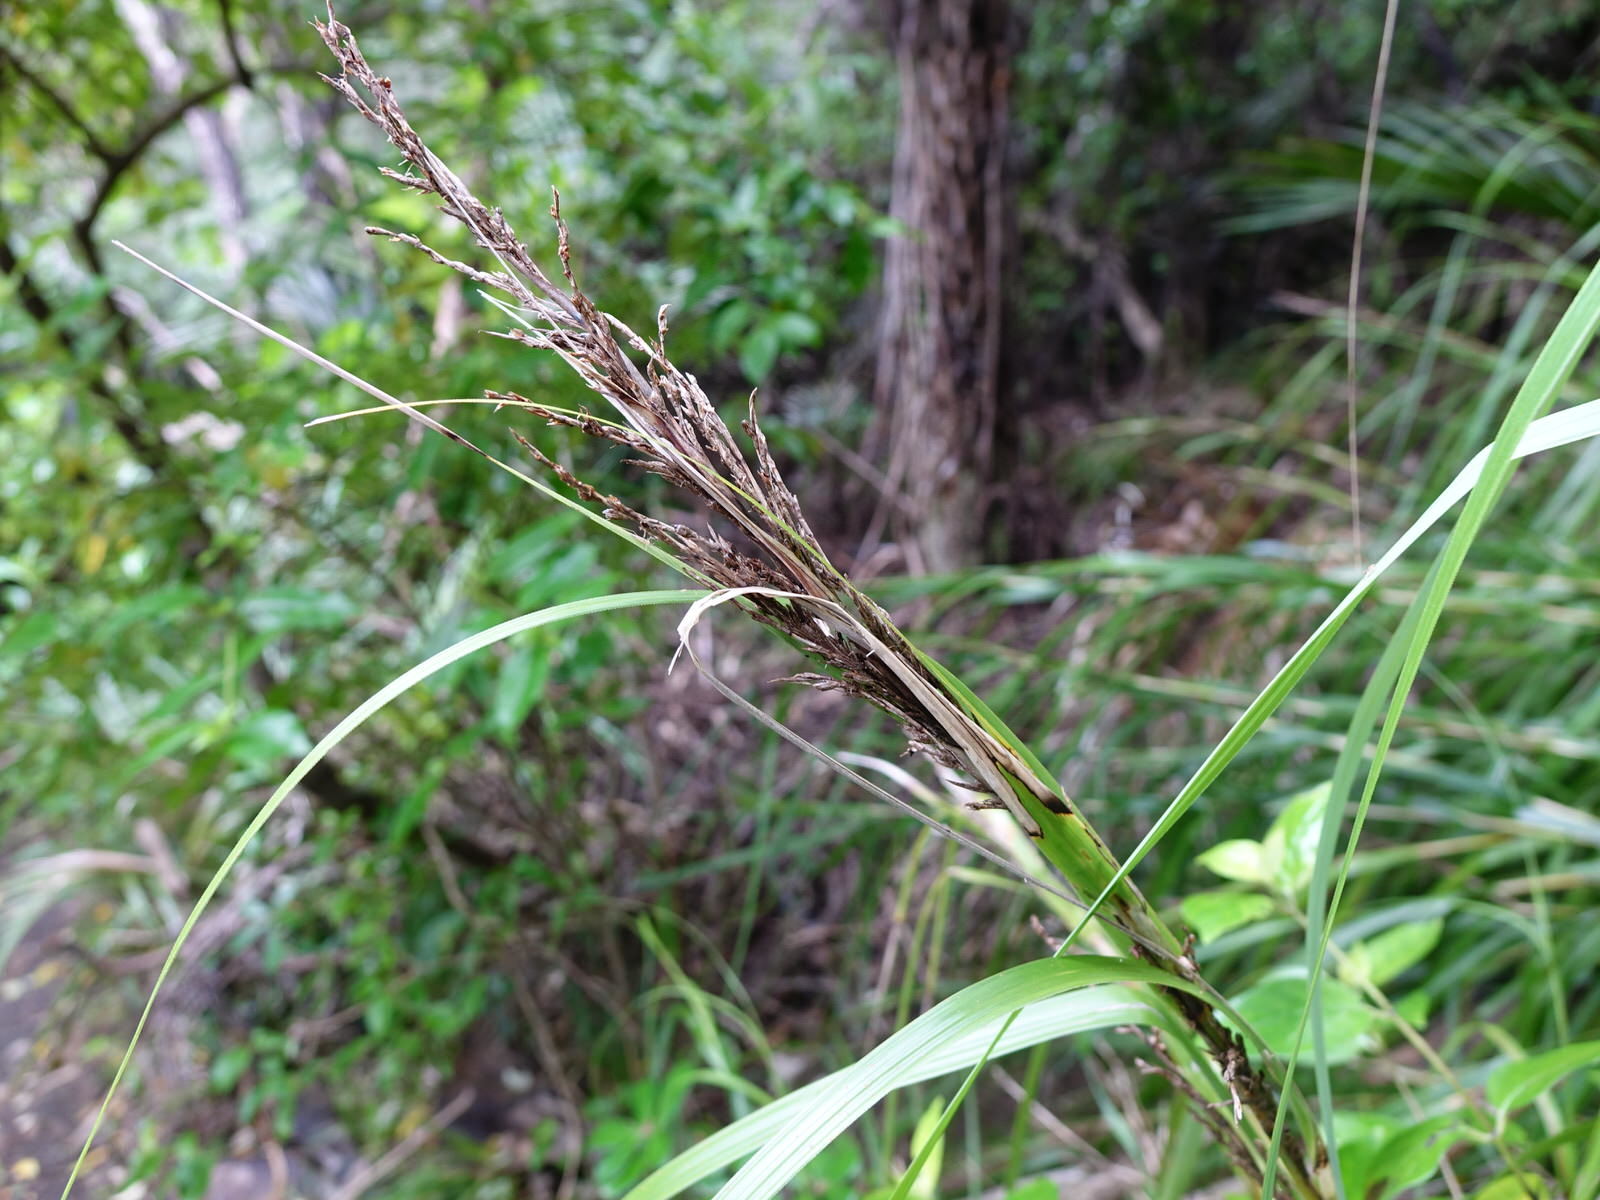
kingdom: Plantae
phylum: Tracheophyta
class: Liliopsida
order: Poales
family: Cyperaceae
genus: Gahnia
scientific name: Gahnia lacera
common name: Sawsedge
